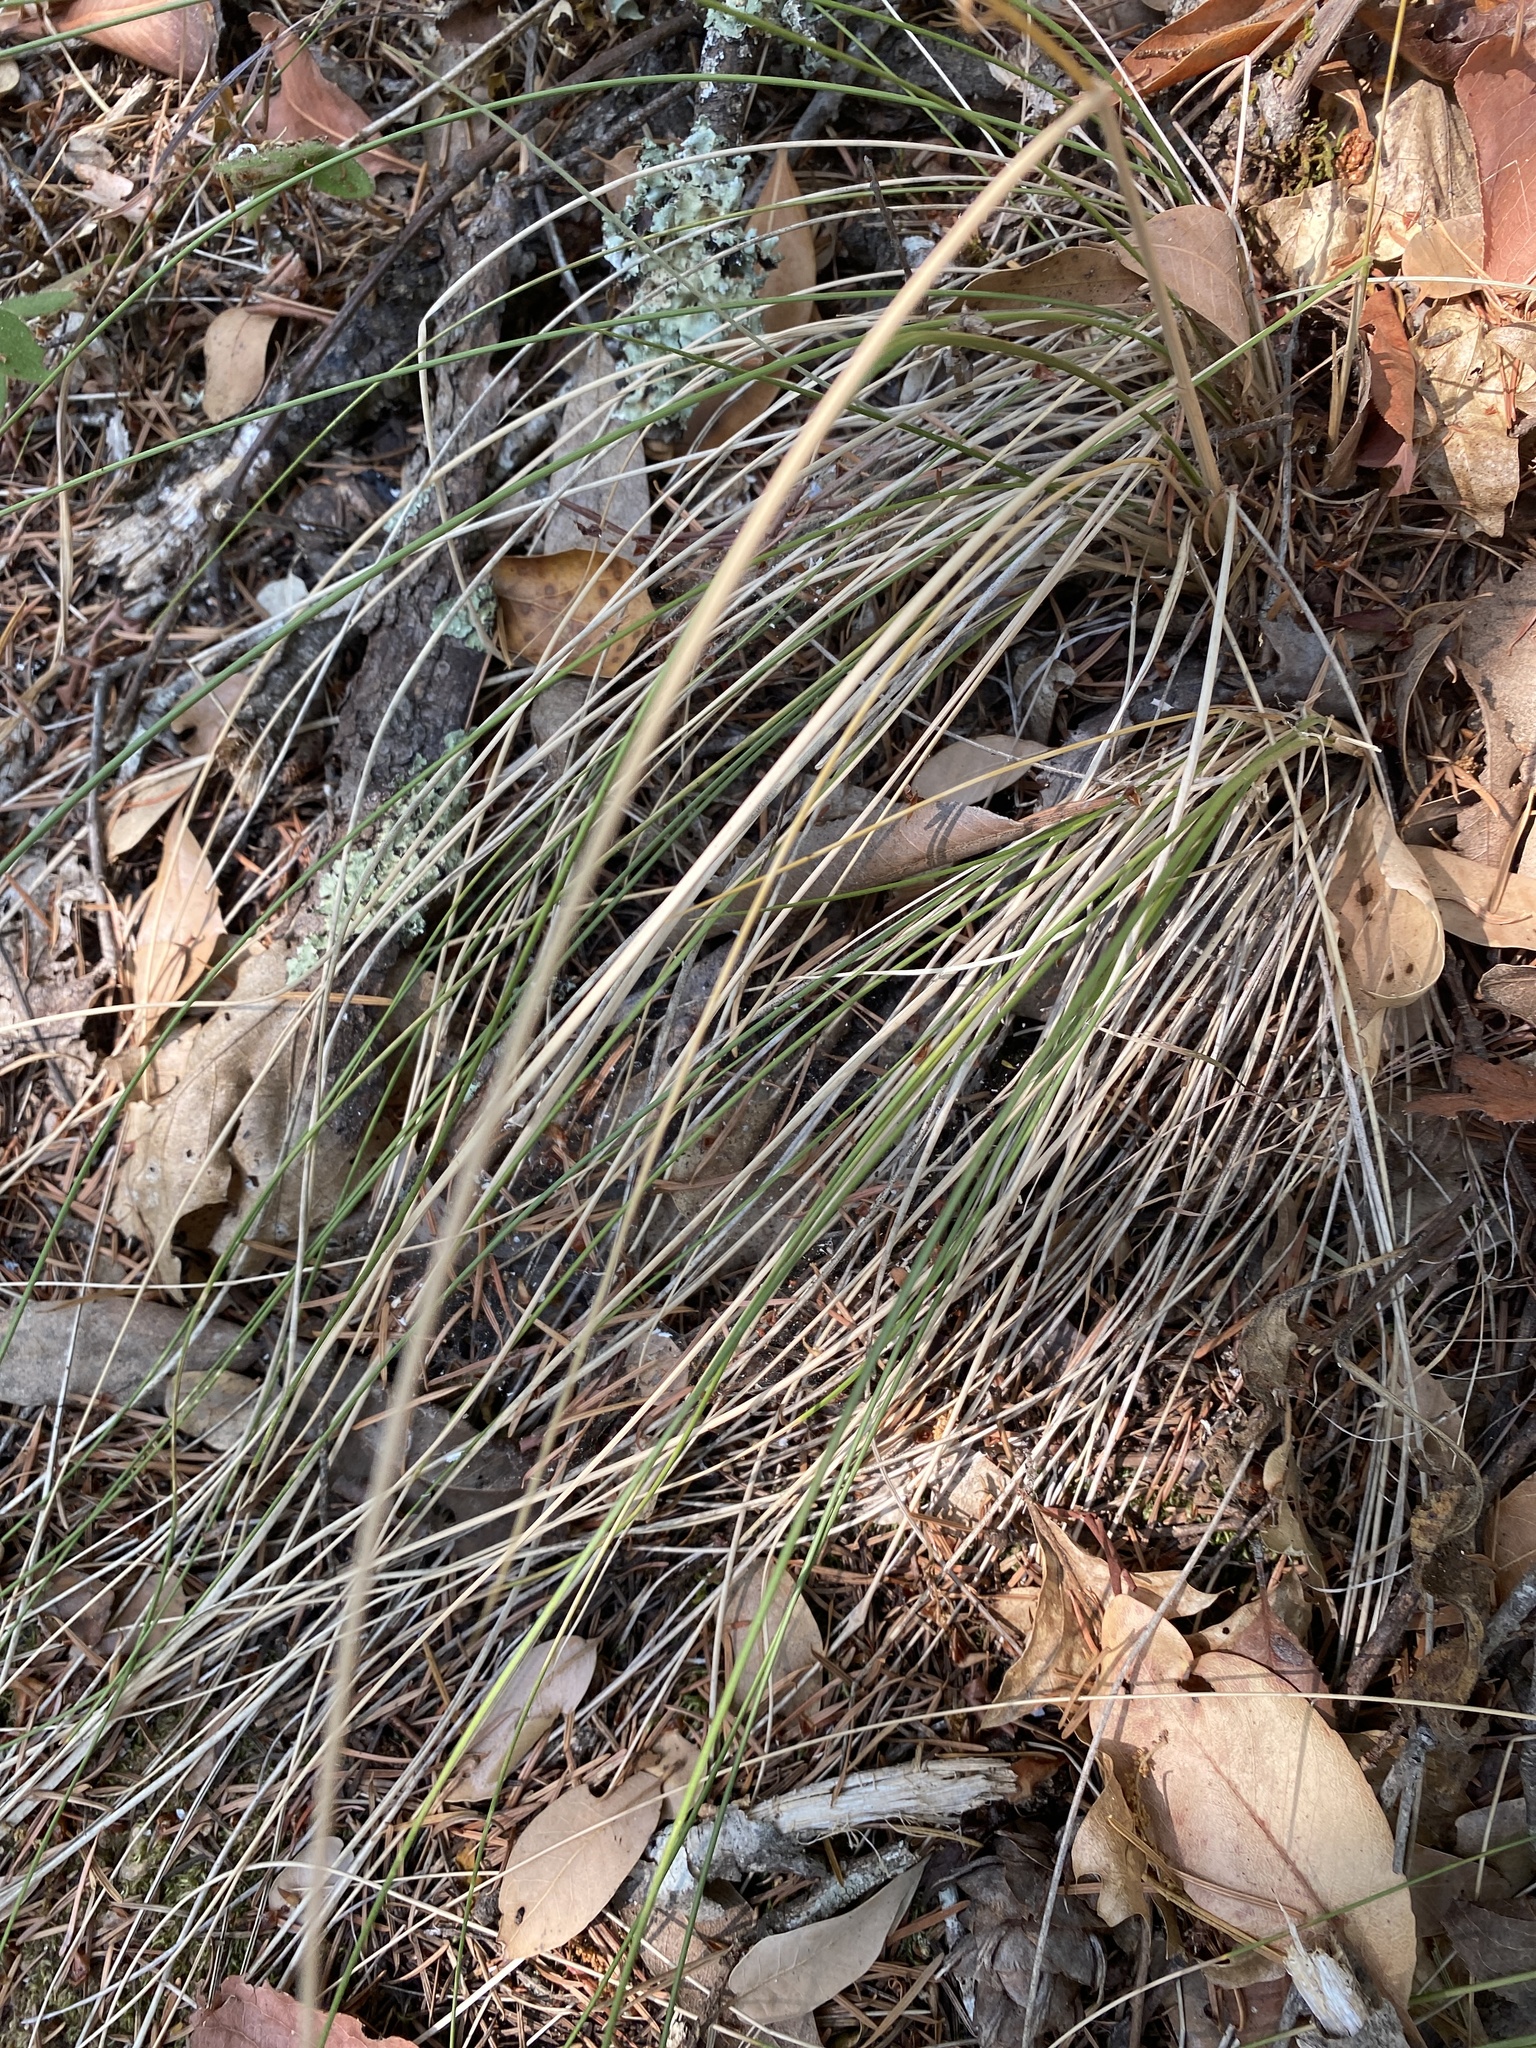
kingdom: Plantae
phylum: Tracheophyta
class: Liliopsida
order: Poales
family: Poaceae
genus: Festuca
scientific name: Festuca californica
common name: California fescue
